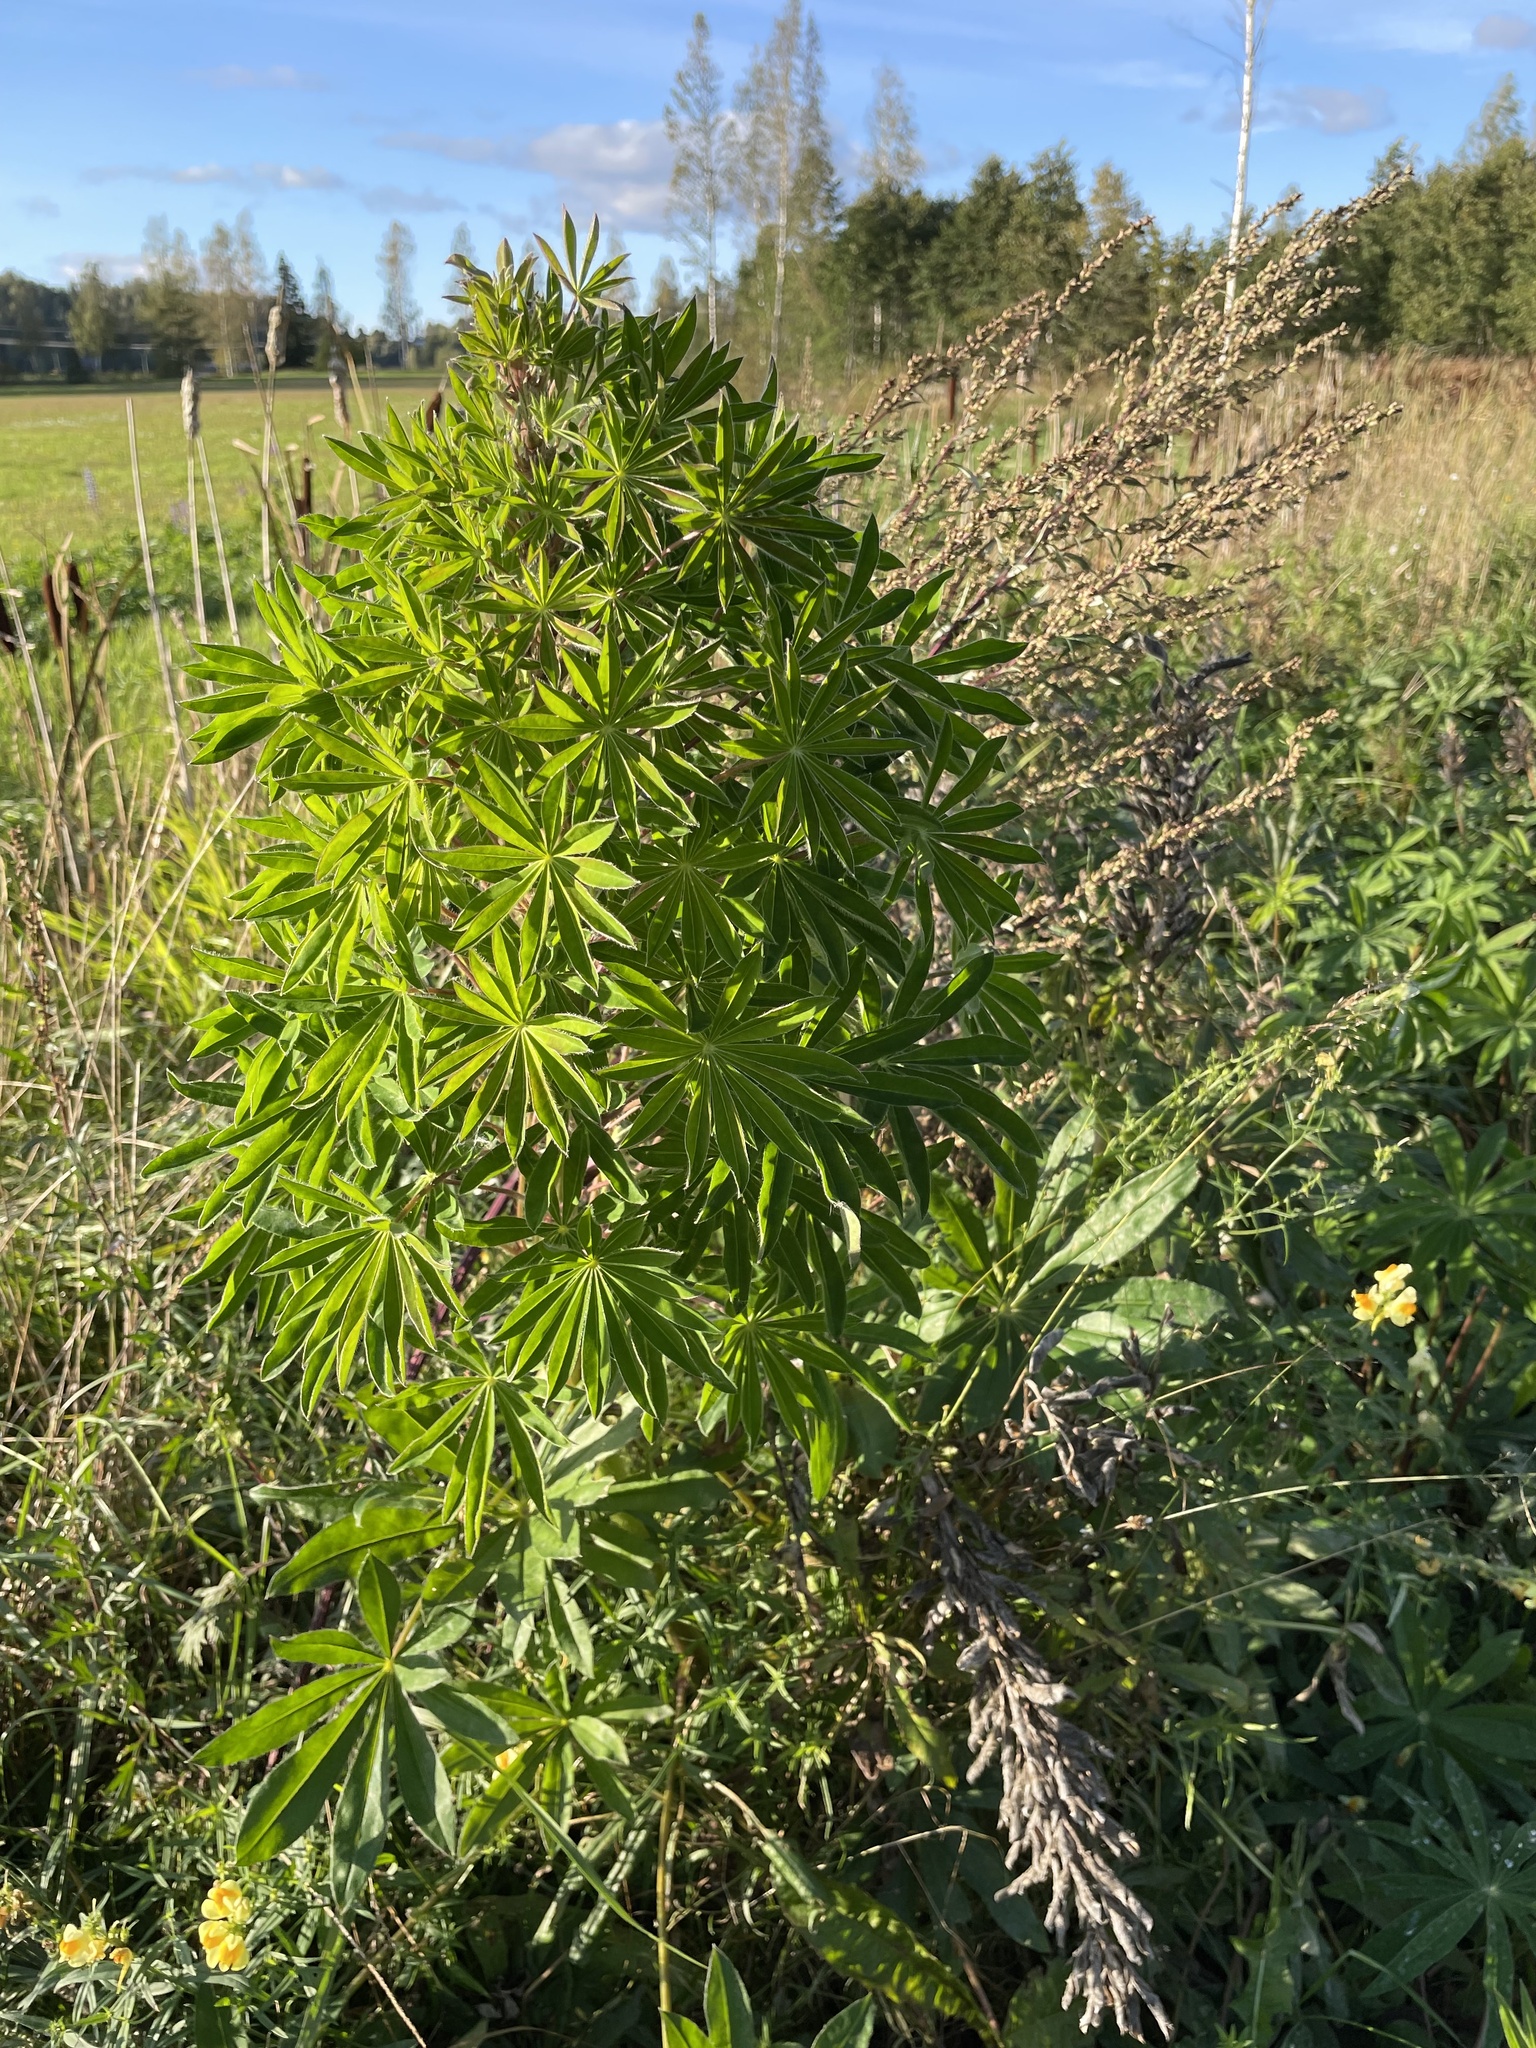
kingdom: Plantae
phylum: Tracheophyta
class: Magnoliopsida
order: Fabales
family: Fabaceae
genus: Lupinus
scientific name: Lupinus polyphyllus
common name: Garden lupin
